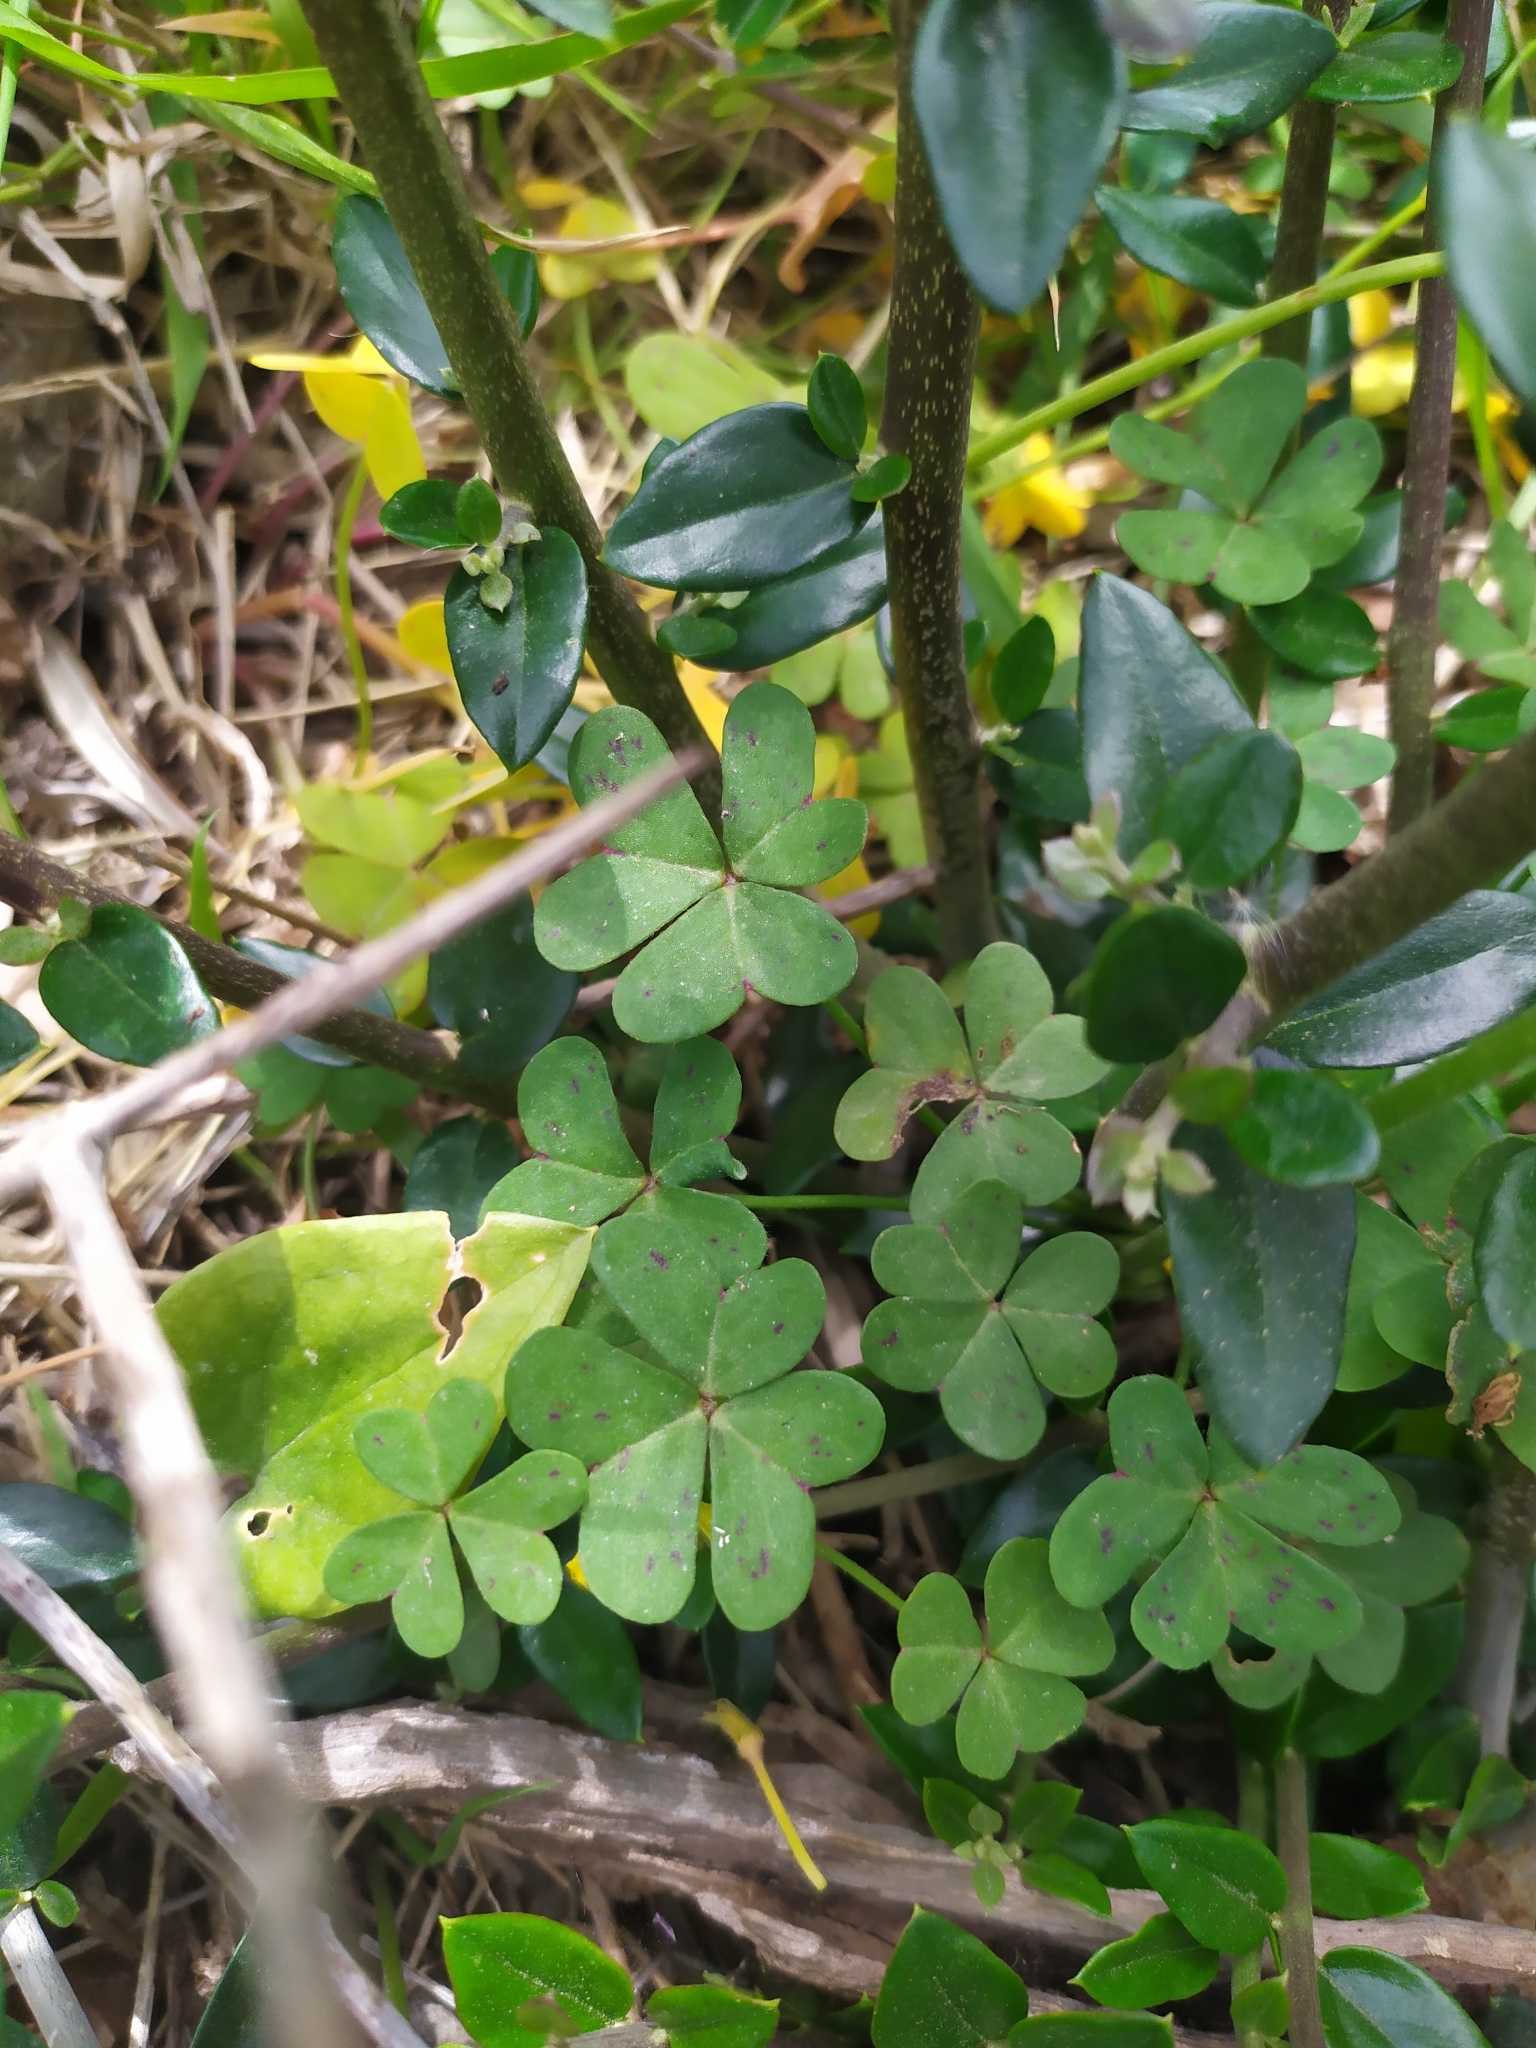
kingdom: Plantae
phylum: Tracheophyta
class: Magnoliopsida
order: Oxalidales
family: Oxalidaceae
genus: Oxalis
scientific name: Oxalis pes-caprae
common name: Bermuda-buttercup
